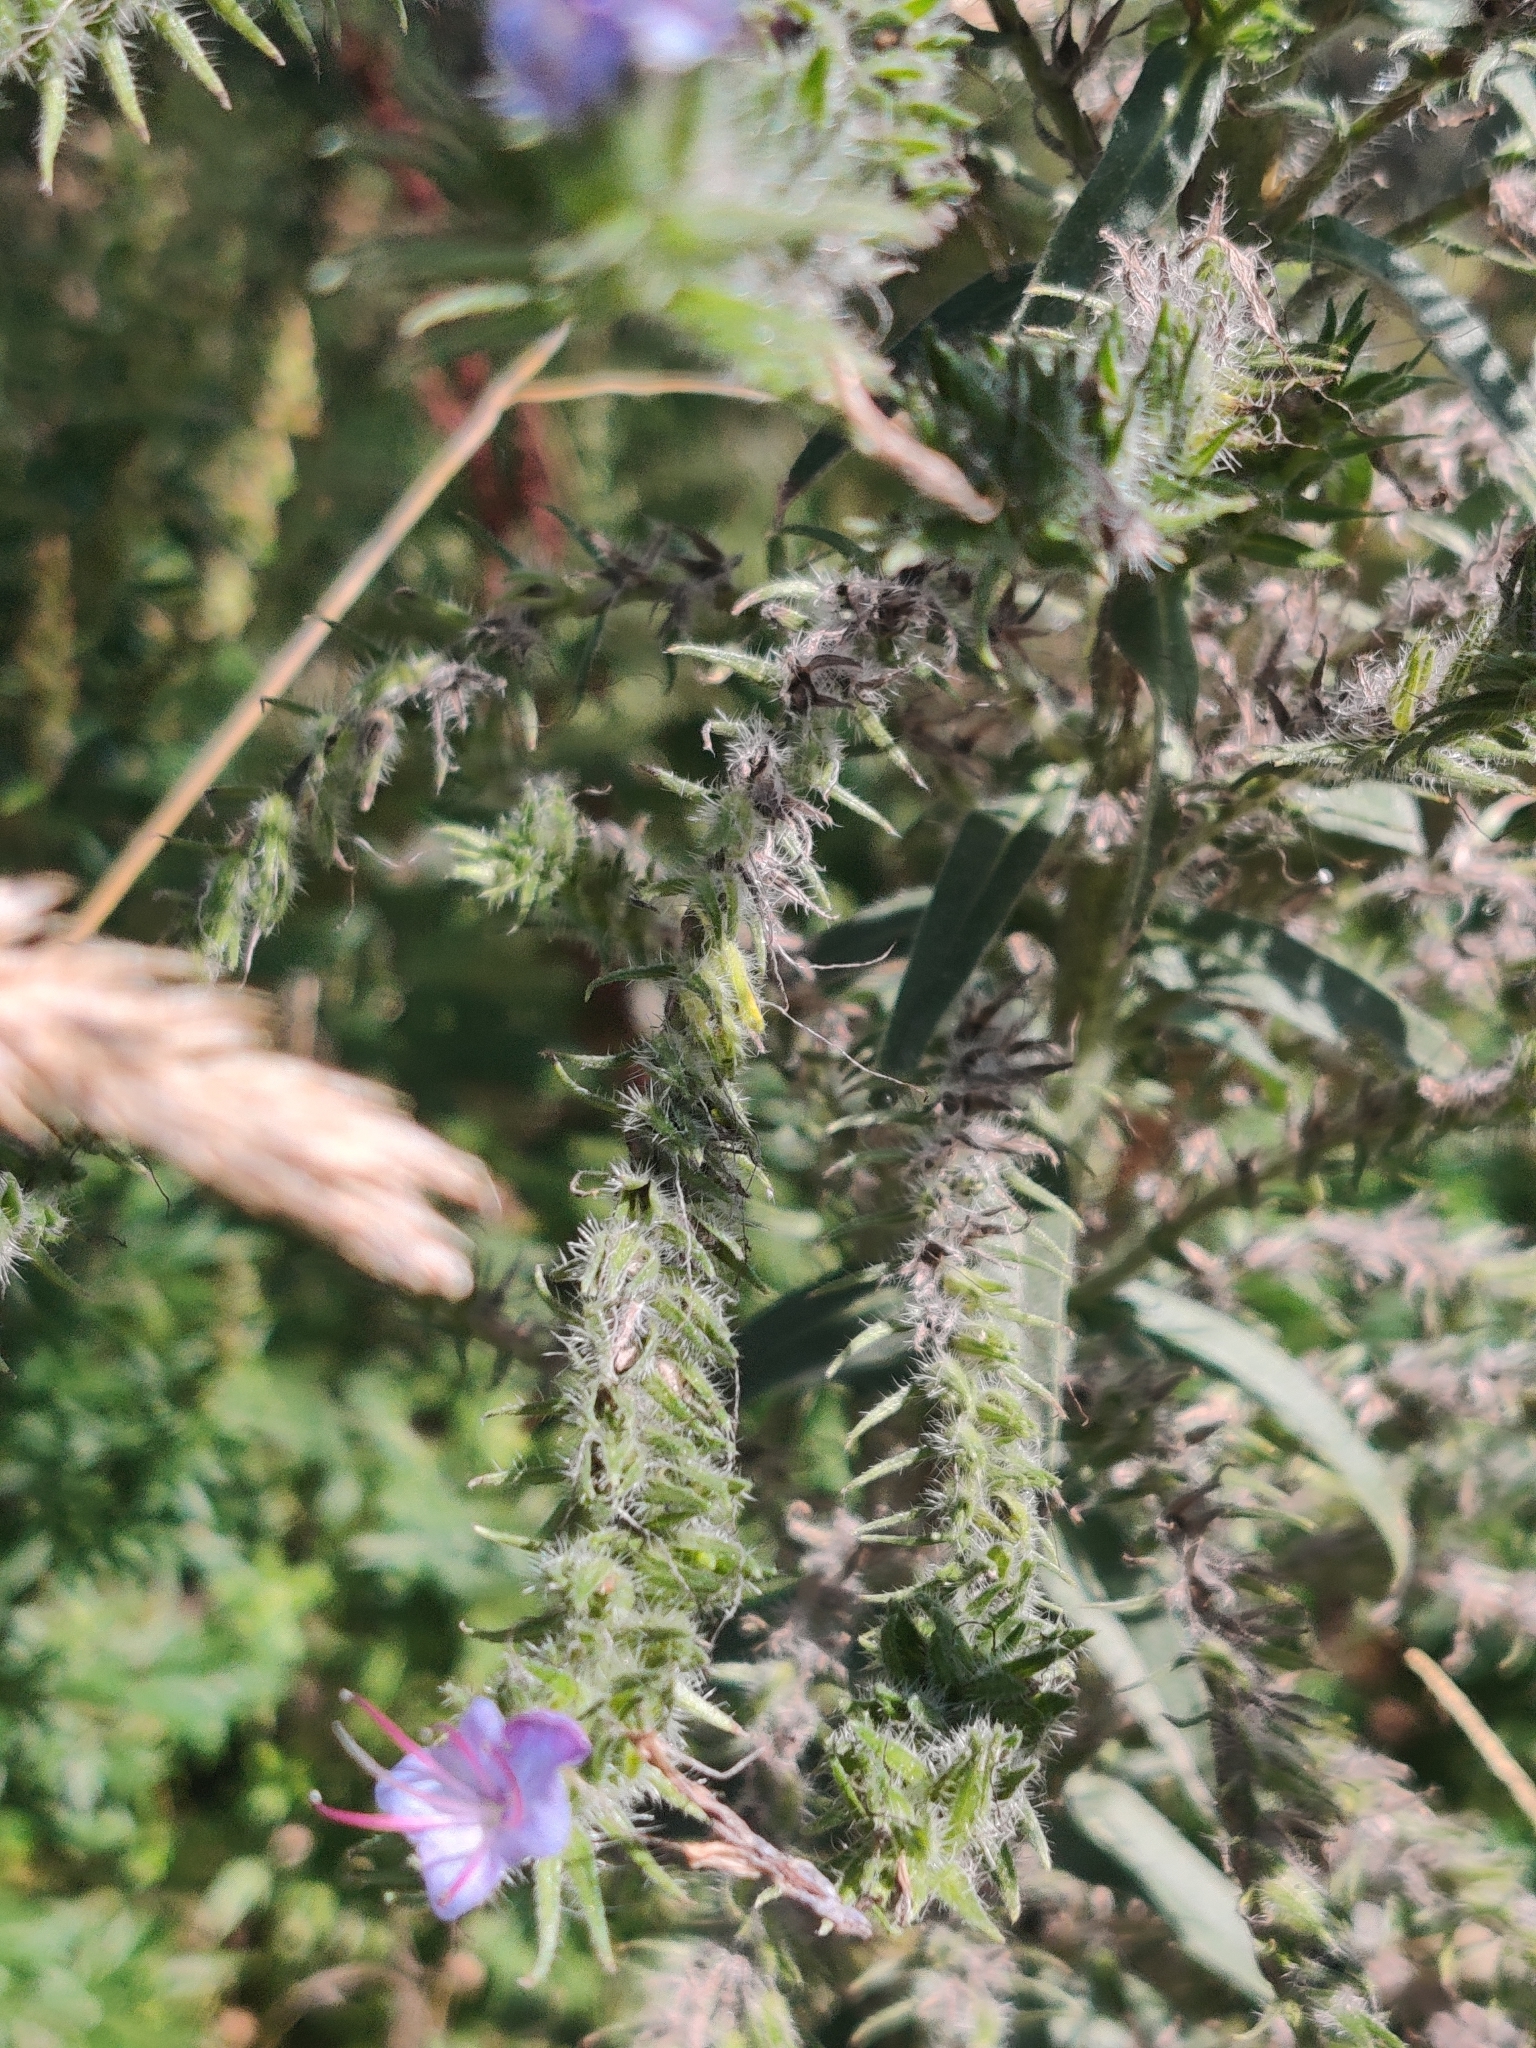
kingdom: Plantae
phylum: Tracheophyta
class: Magnoliopsida
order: Boraginales
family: Boraginaceae
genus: Echium
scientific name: Echium vulgare
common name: Common viper's bugloss
